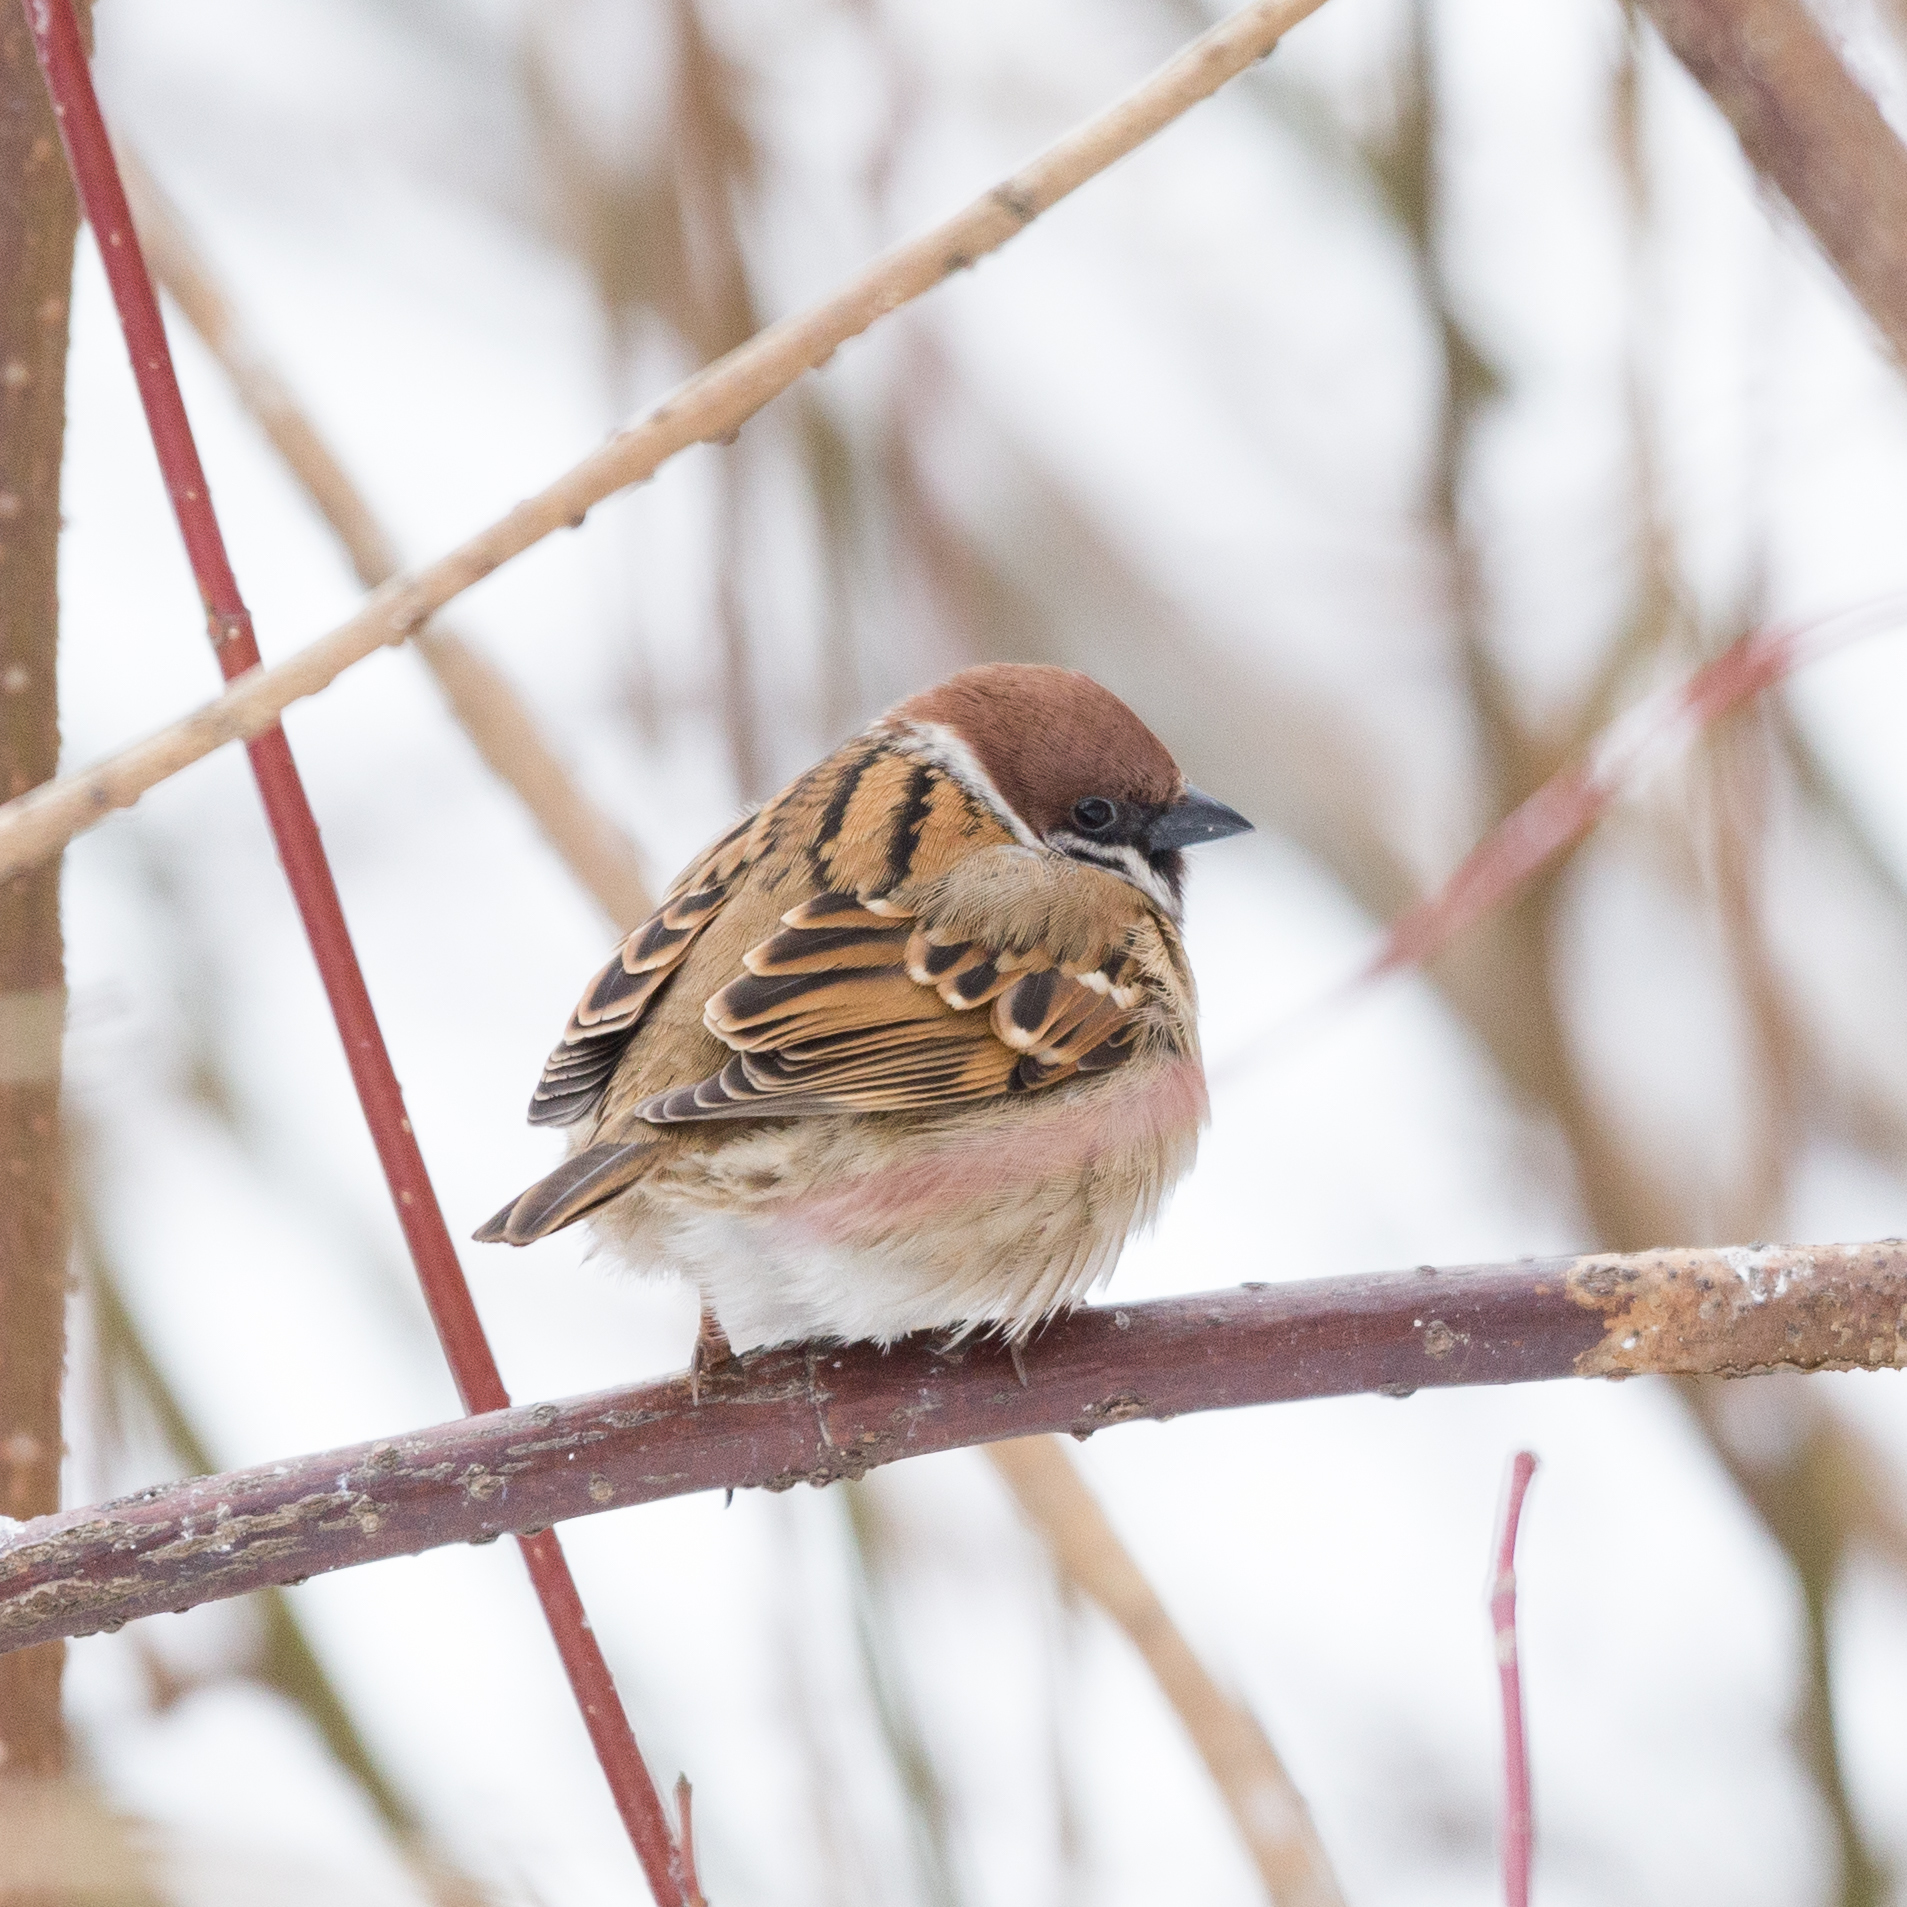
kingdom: Animalia
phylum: Chordata
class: Aves
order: Passeriformes
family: Passeridae
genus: Passer
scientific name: Passer montanus
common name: Eurasian tree sparrow
